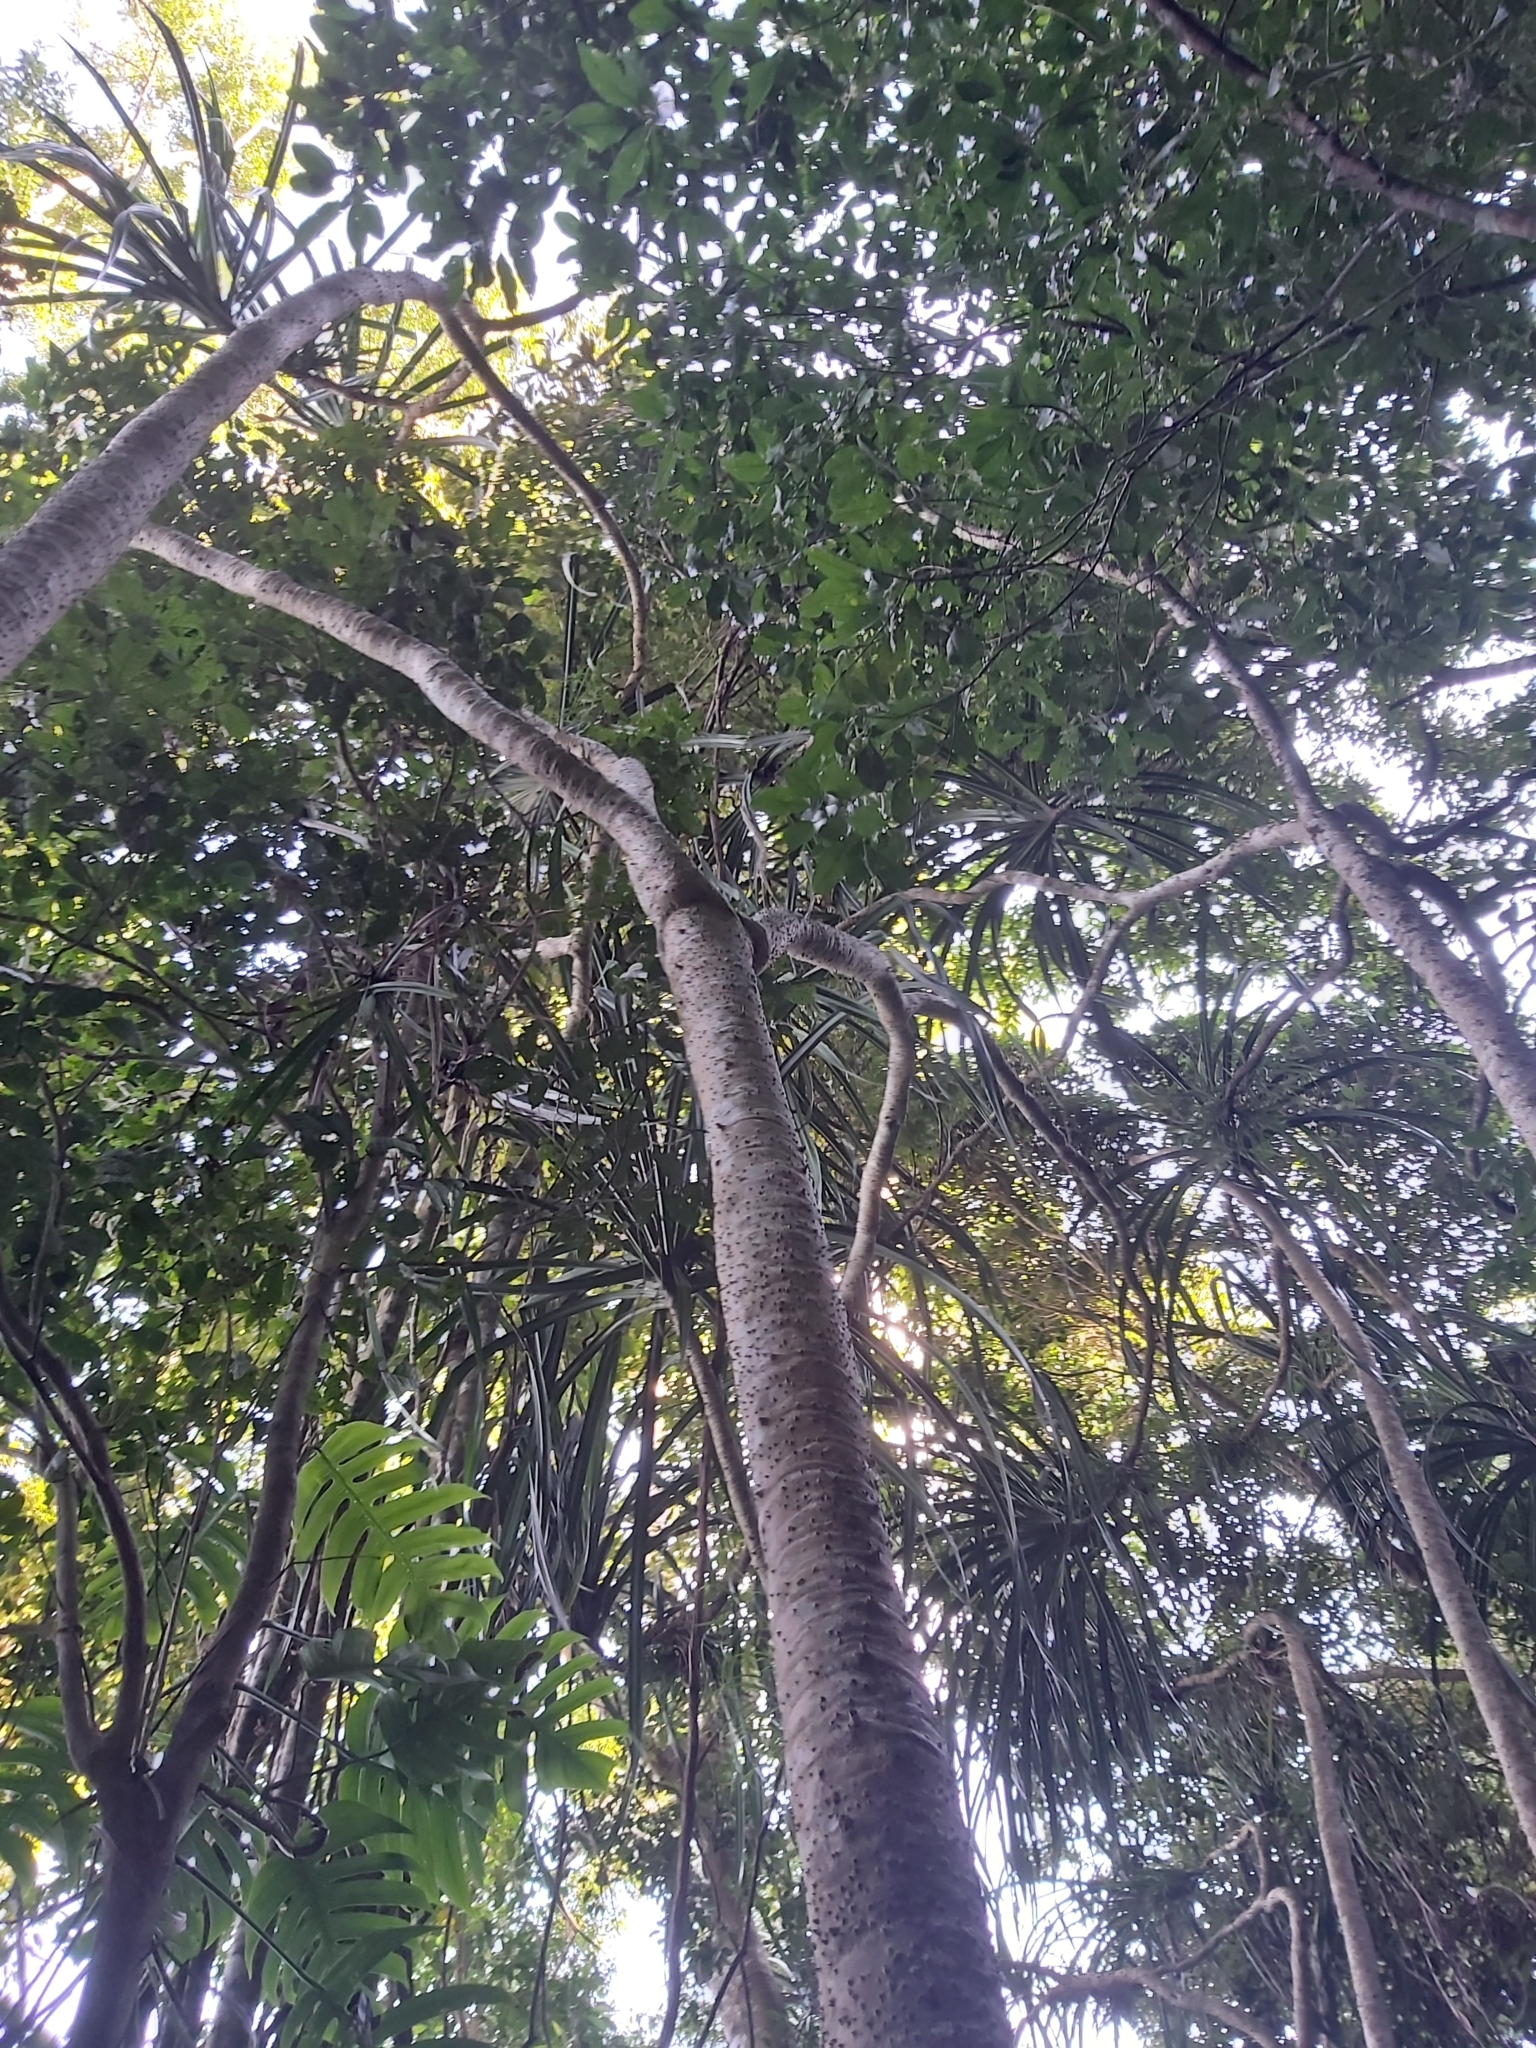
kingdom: Plantae
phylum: Tracheophyta
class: Liliopsida
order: Pandanales
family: Pandanaceae
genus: Pandanus
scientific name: Pandanus gemmifer
